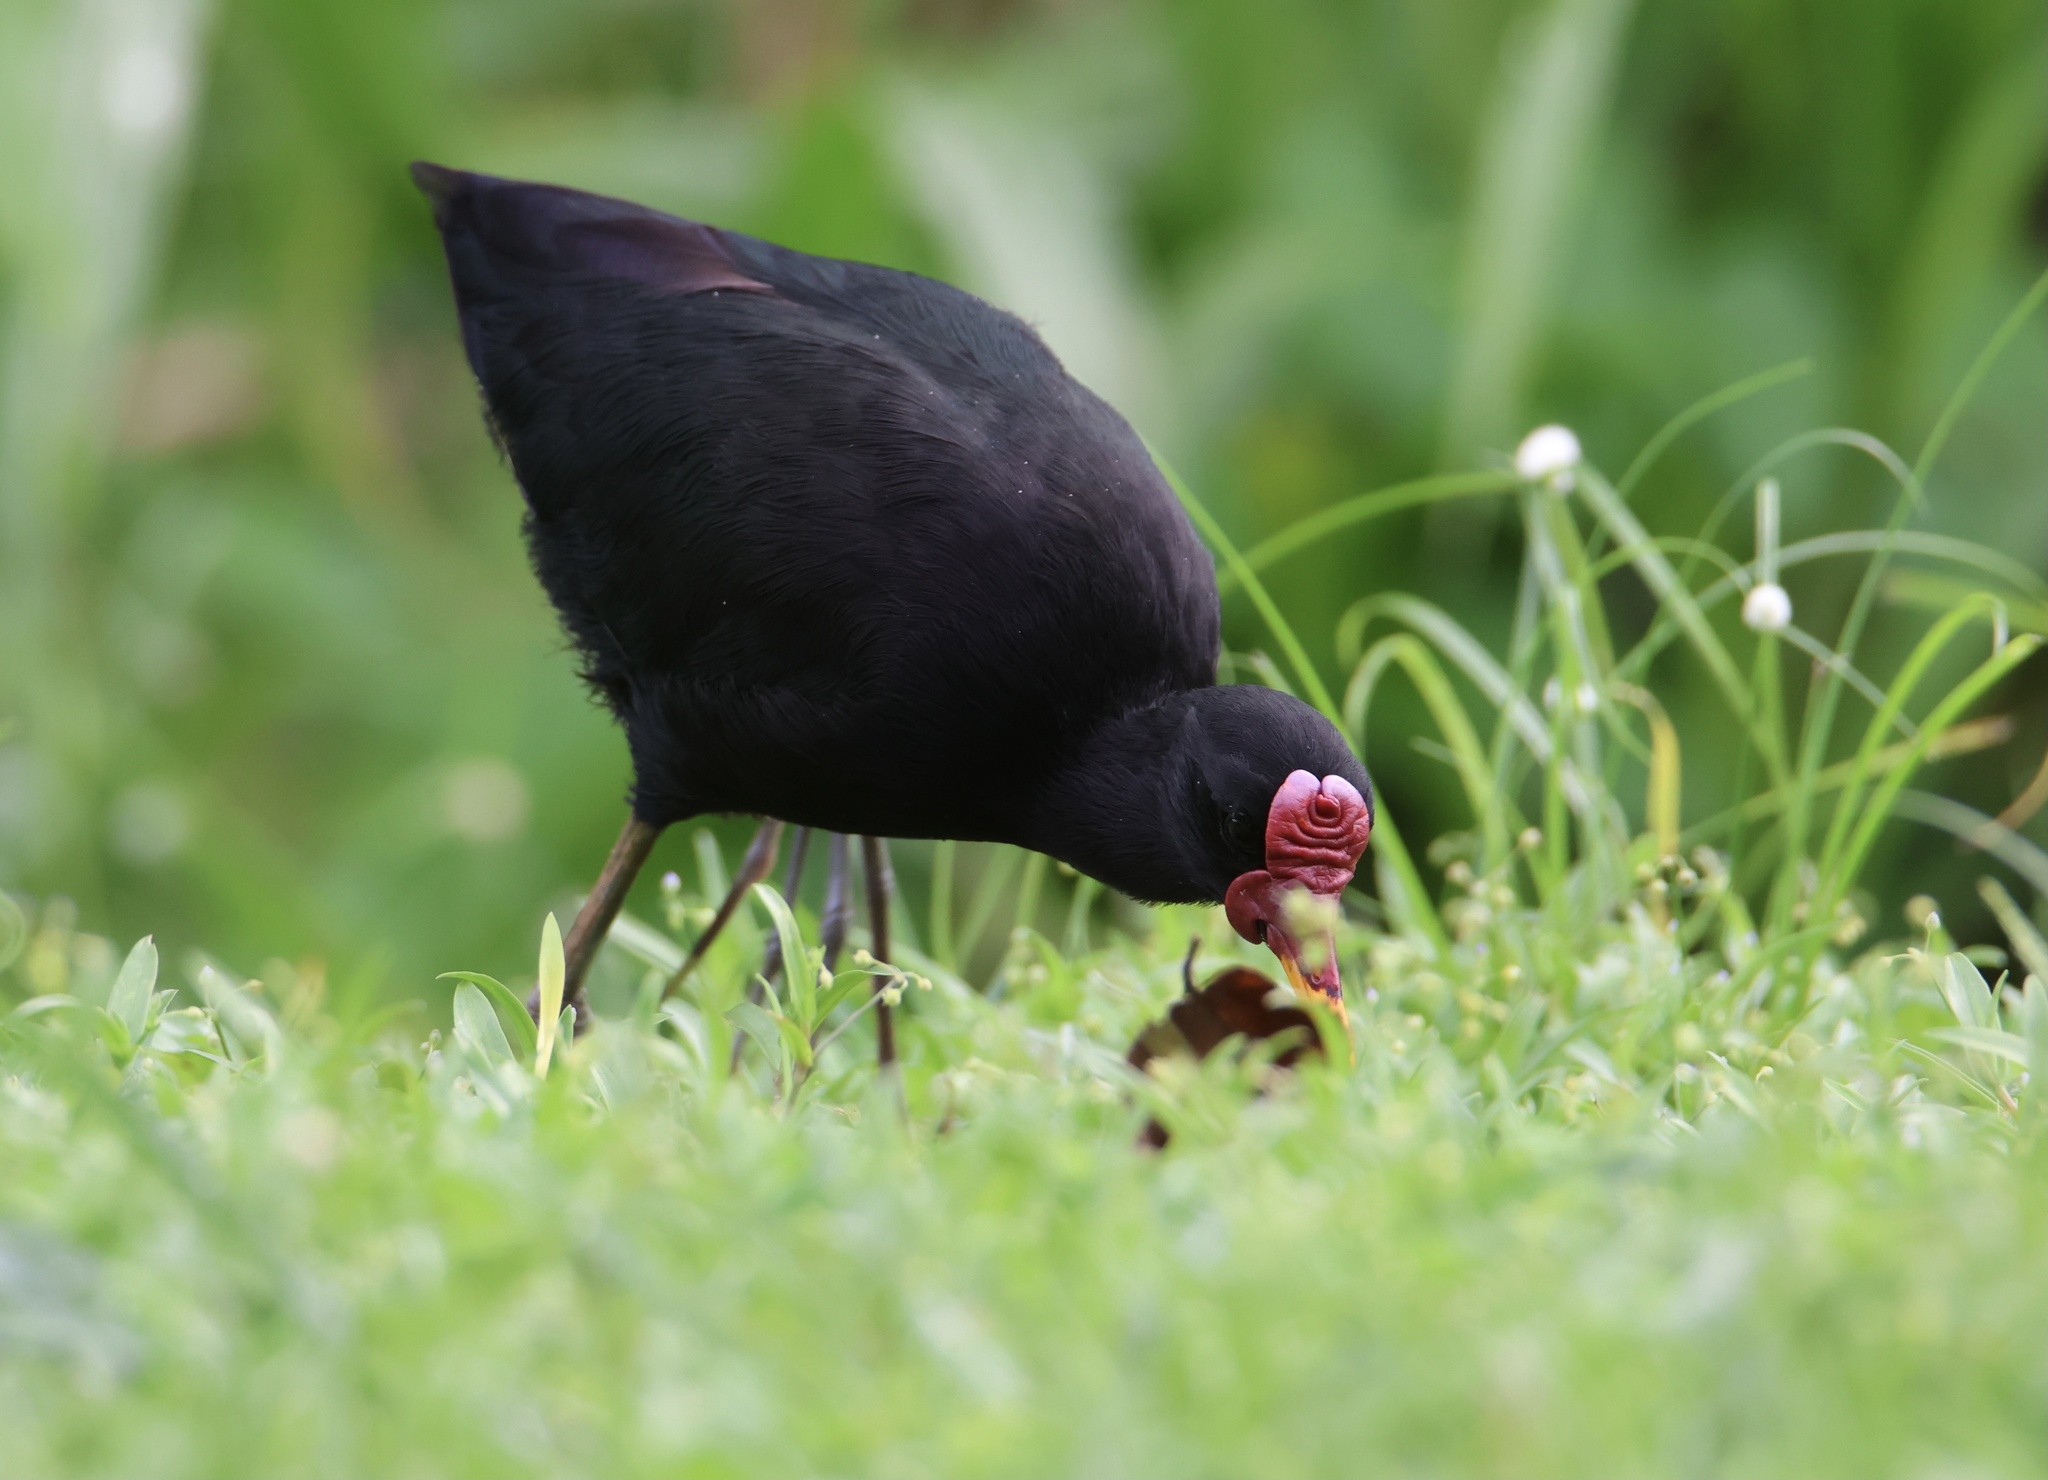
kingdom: Animalia
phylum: Chordata
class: Aves
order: Charadriiformes
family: Jacanidae
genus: Jacana
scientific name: Jacana jacana
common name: Wattled jacana
